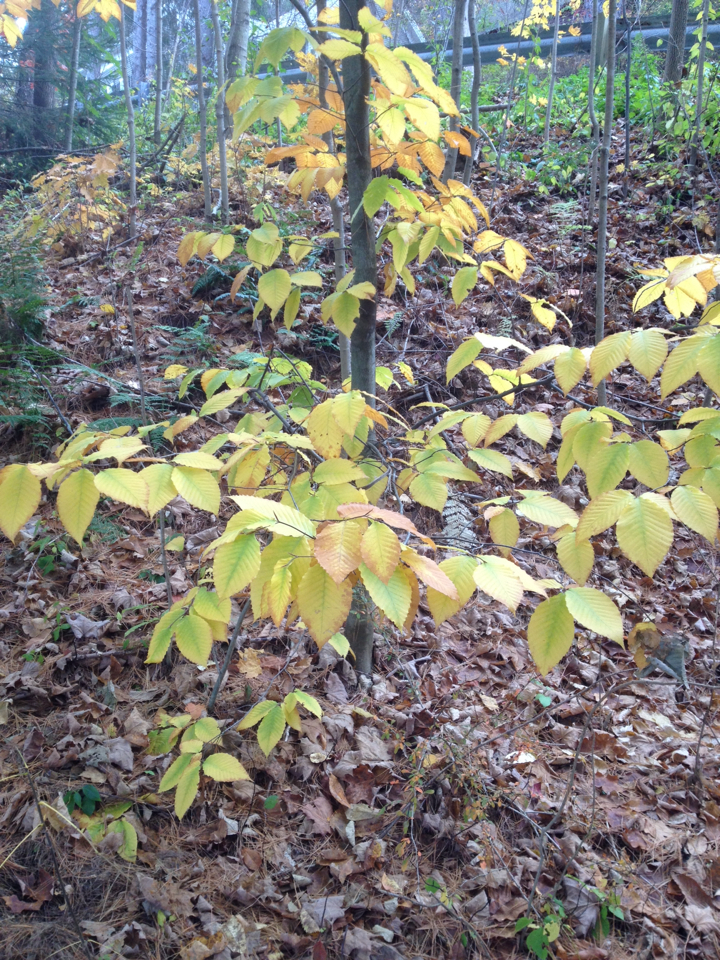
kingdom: Plantae
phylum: Tracheophyta
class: Magnoliopsida
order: Fagales
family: Fagaceae
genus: Fagus
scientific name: Fagus grandifolia
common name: American beech
